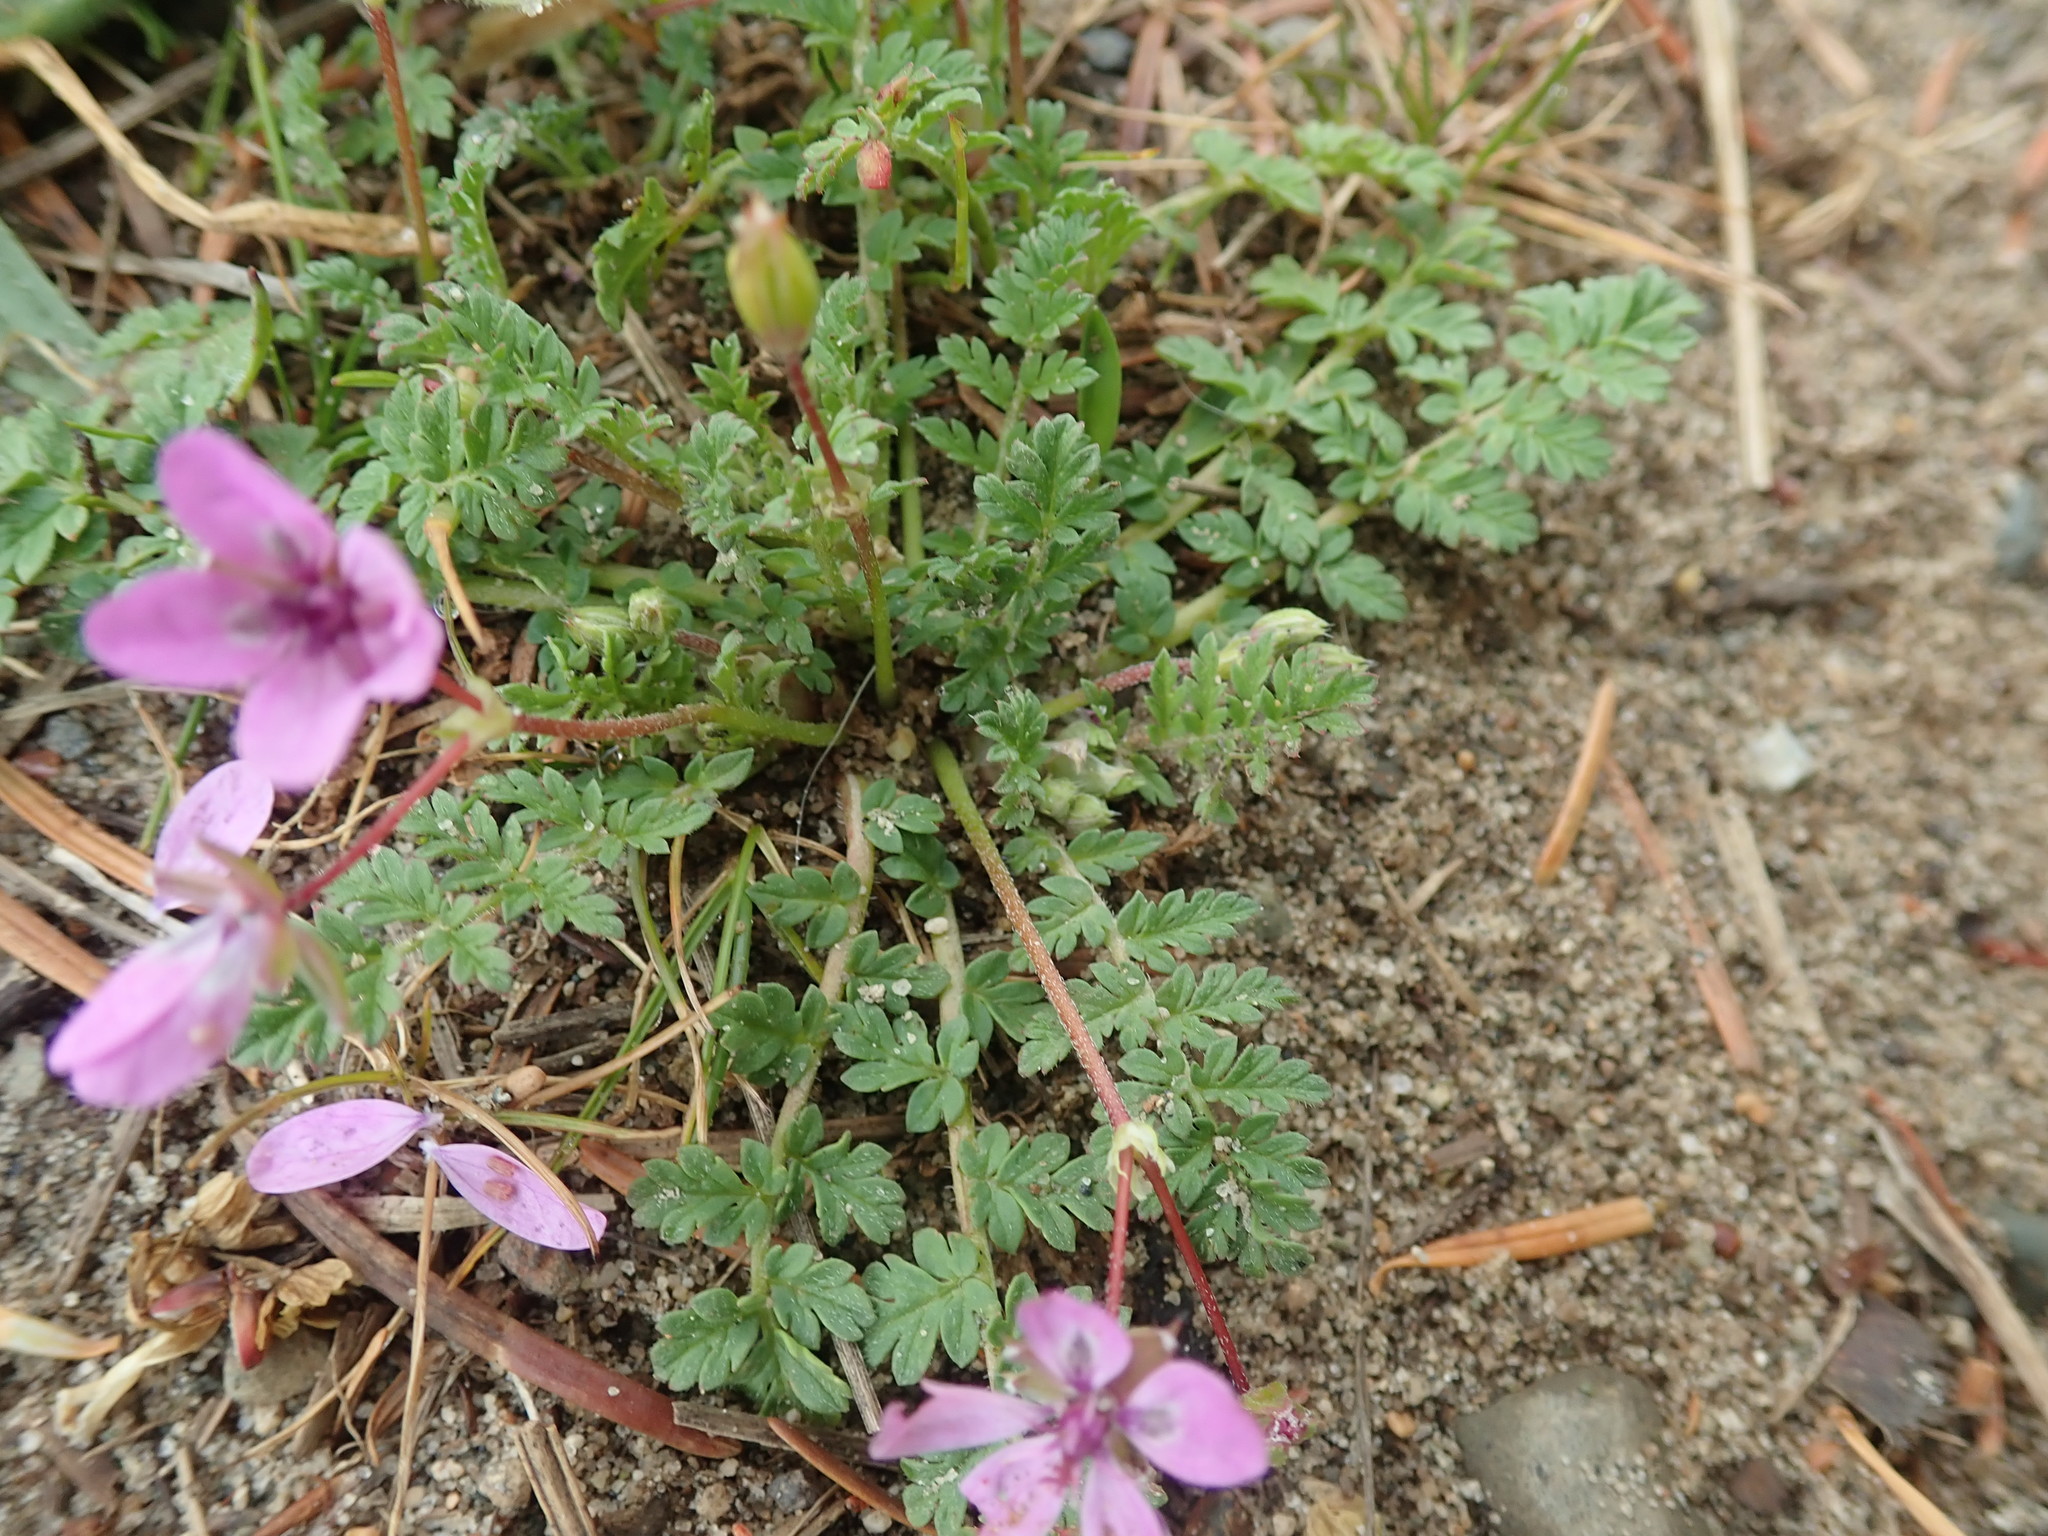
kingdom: Plantae
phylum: Tracheophyta
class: Magnoliopsida
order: Geraniales
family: Geraniaceae
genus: Erodium
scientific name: Erodium cicutarium
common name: Common stork's-bill
